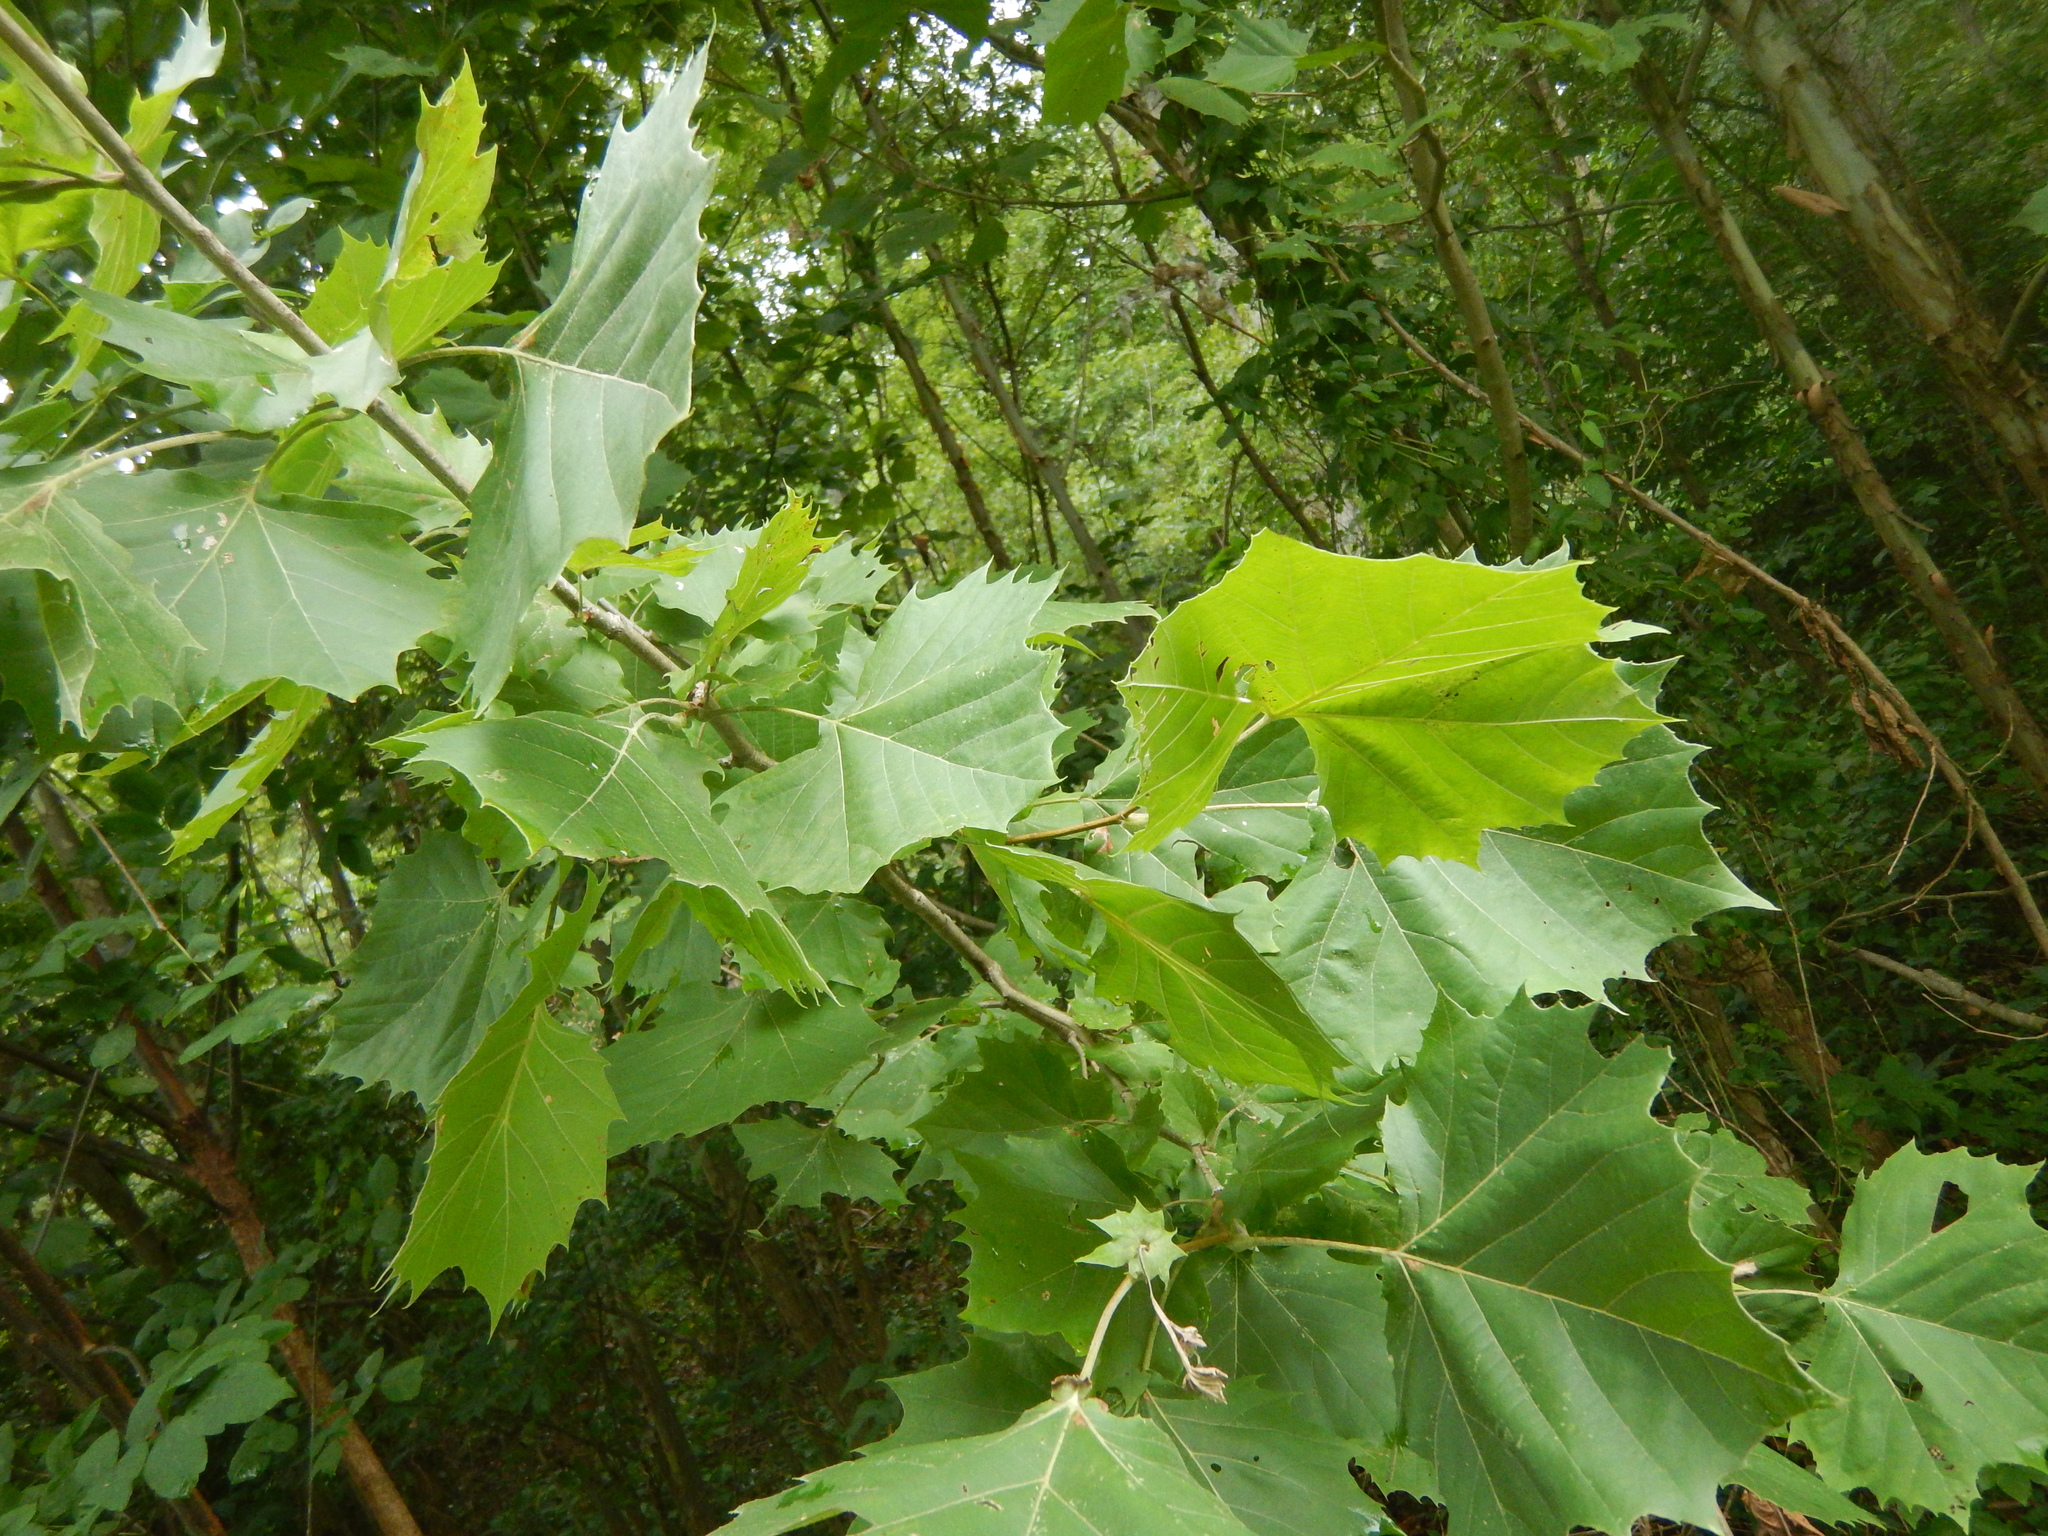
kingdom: Plantae
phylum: Tracheophyta
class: Magnoliopsida
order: Proteales
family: Platanaceae
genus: Platanus
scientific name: Platanus occidentalis
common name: American sycamore
